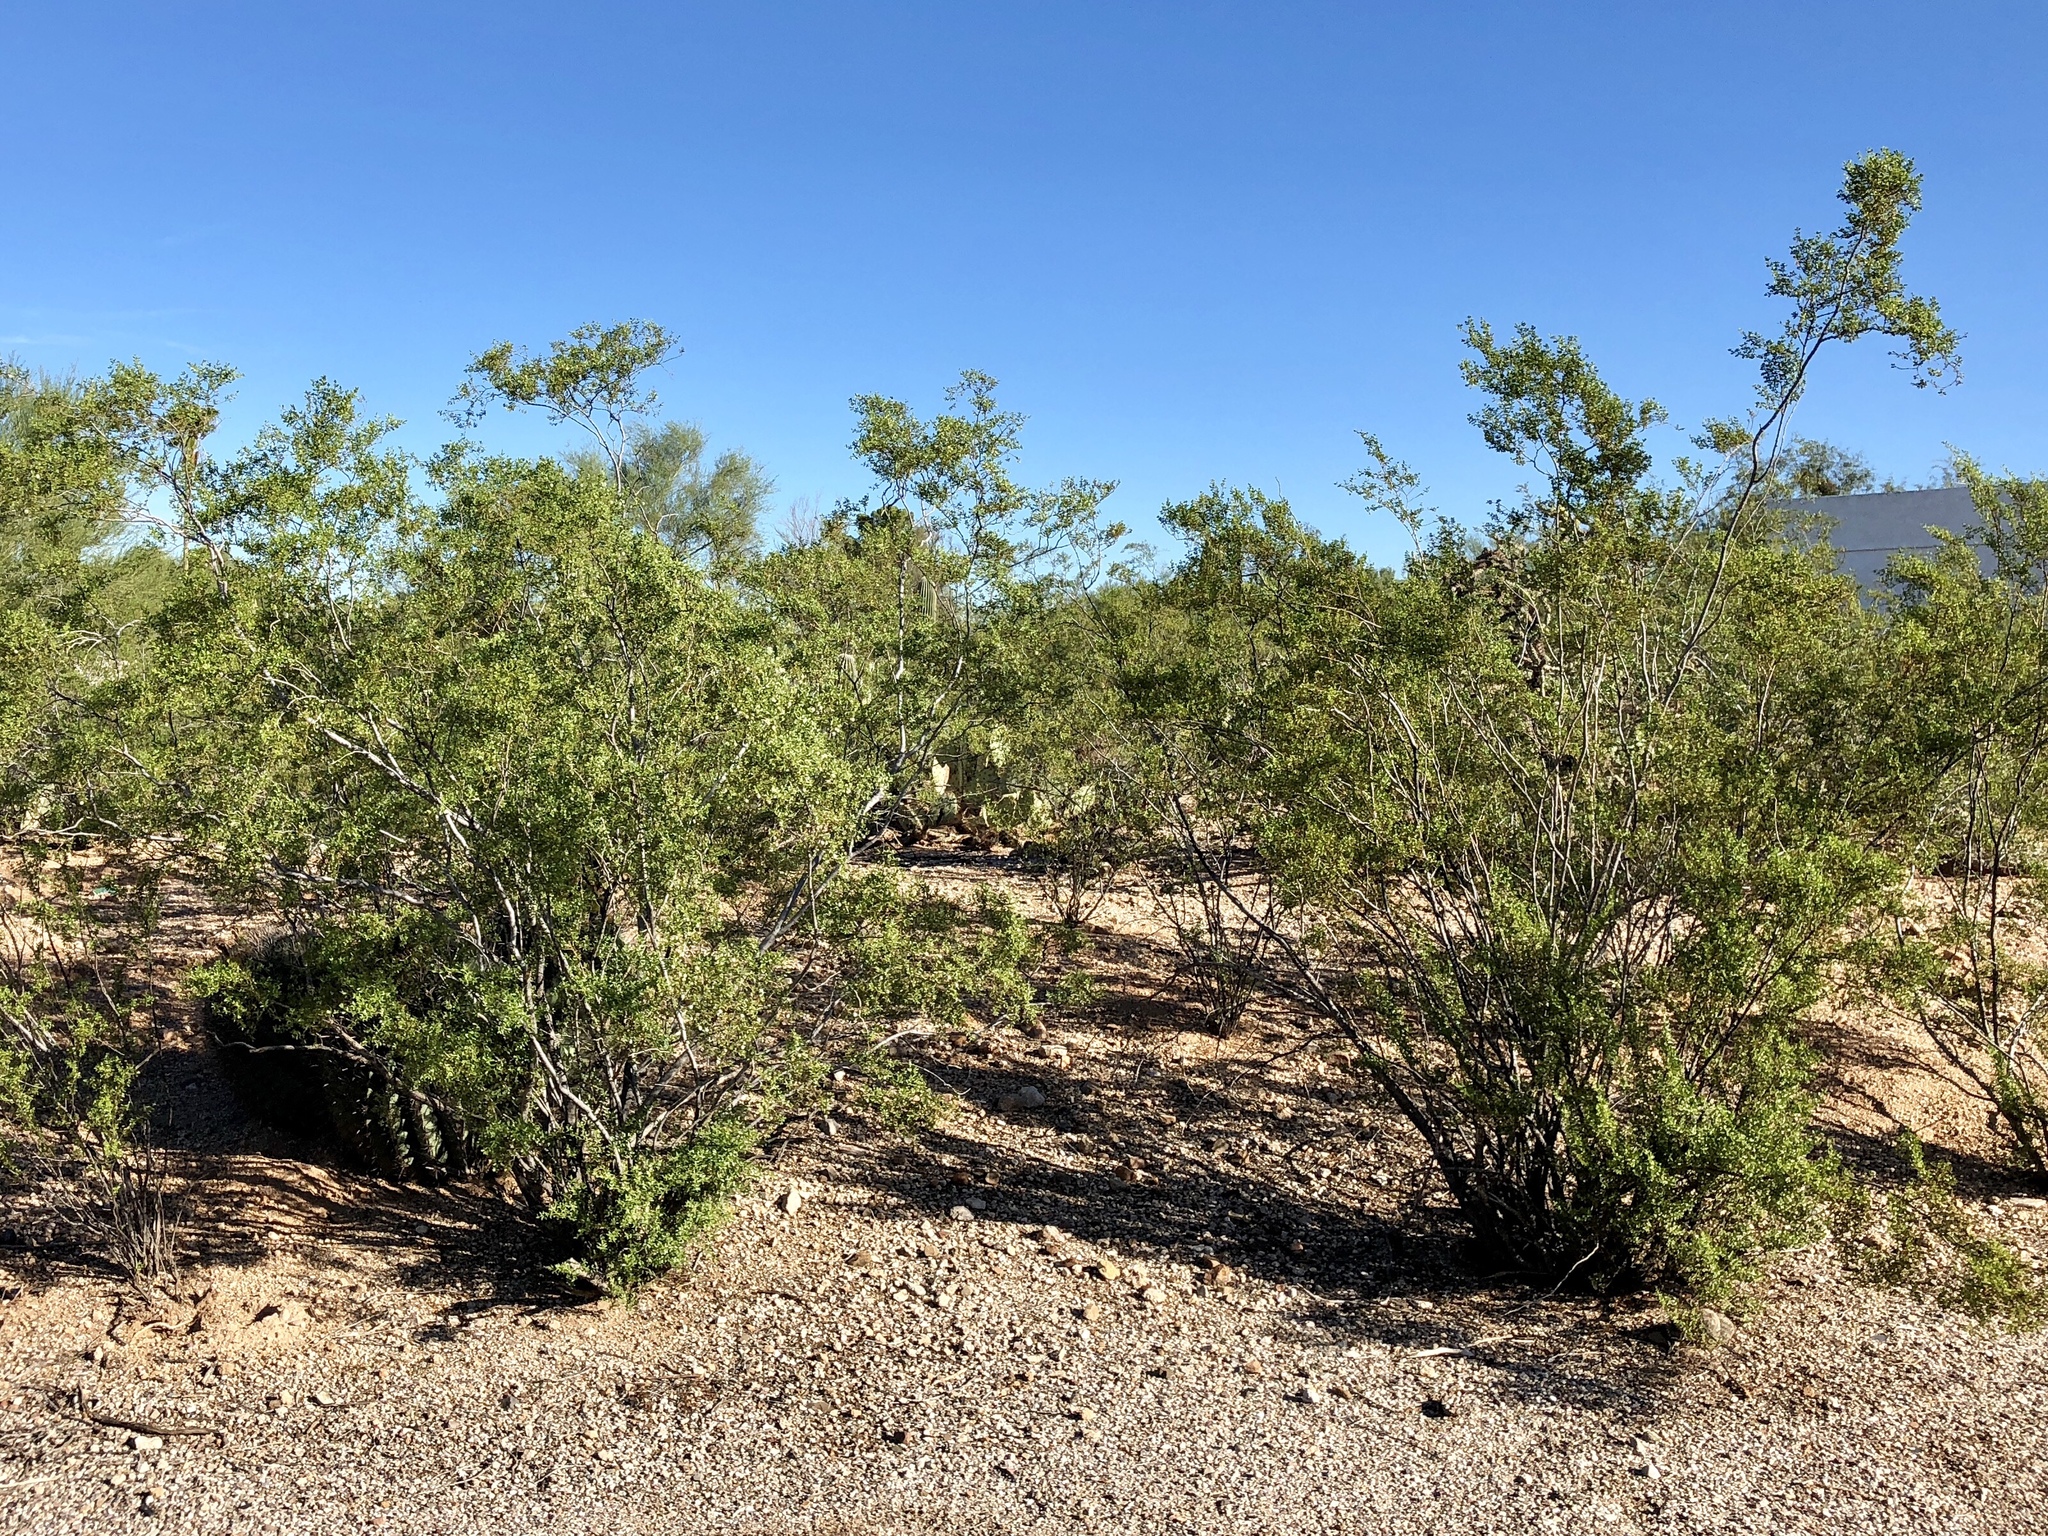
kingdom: Plantae
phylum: Tracheophyta
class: Magnoliopsida
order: Zygophyllales
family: Zygophyllaceae
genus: Larrea
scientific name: Larrea tridentata
